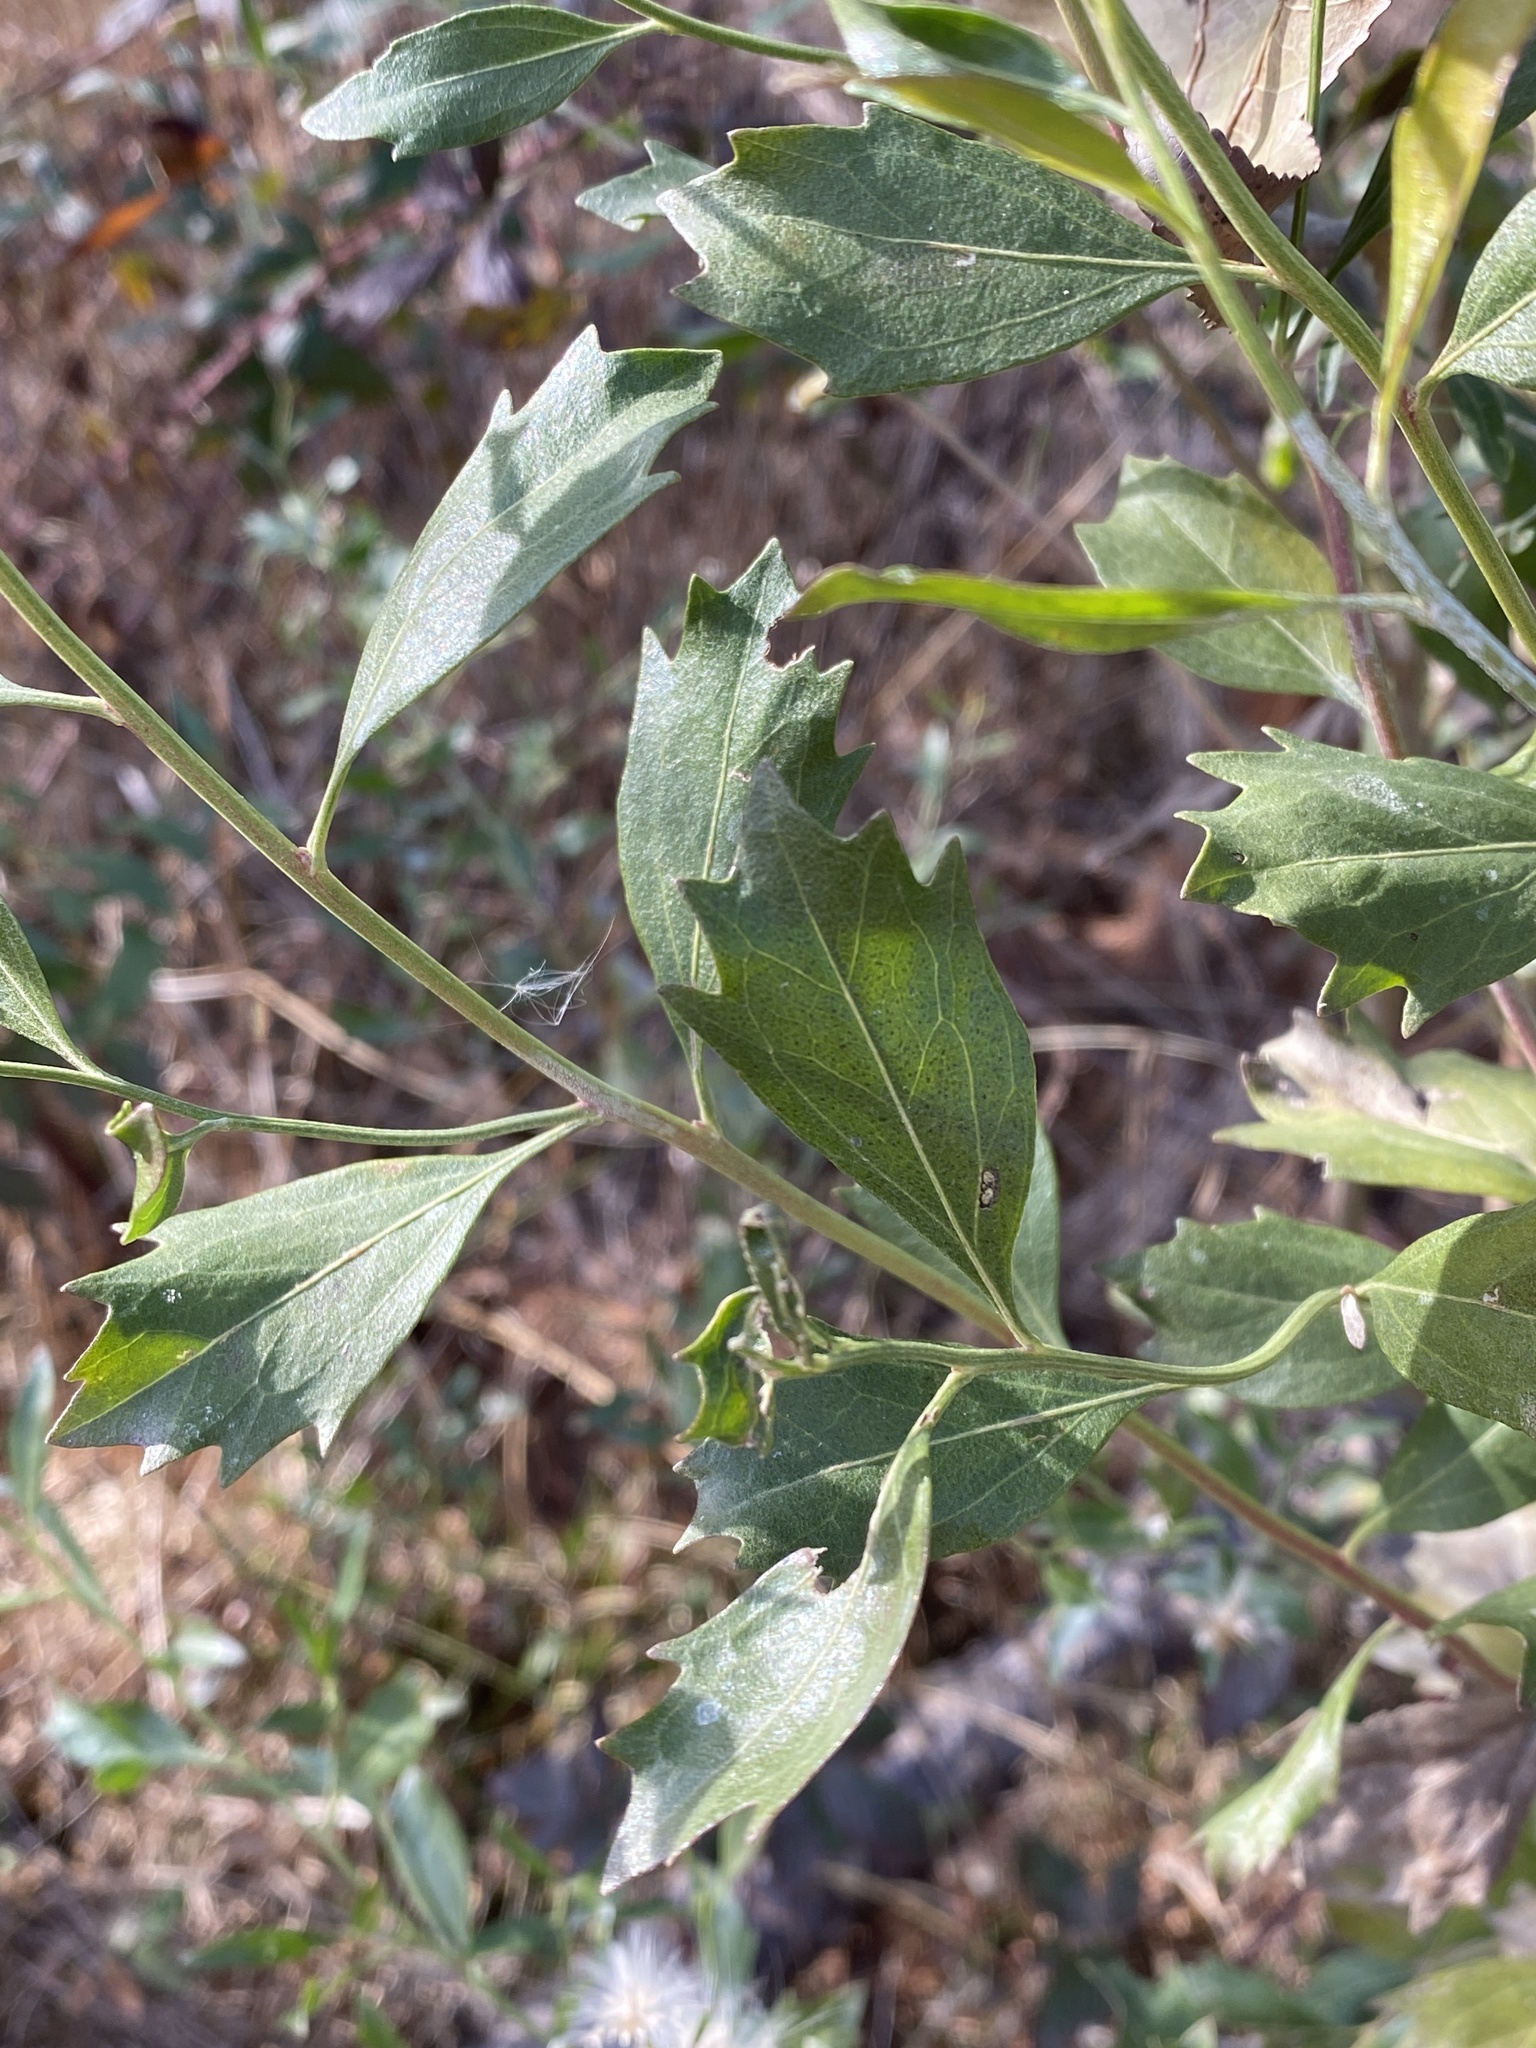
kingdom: Plantae
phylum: Tracheophyta
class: Magnoliopsida
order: Asterales
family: Asteraceae
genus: Baccharis
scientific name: Baccharis halimifolia
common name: Eastern baccharis
